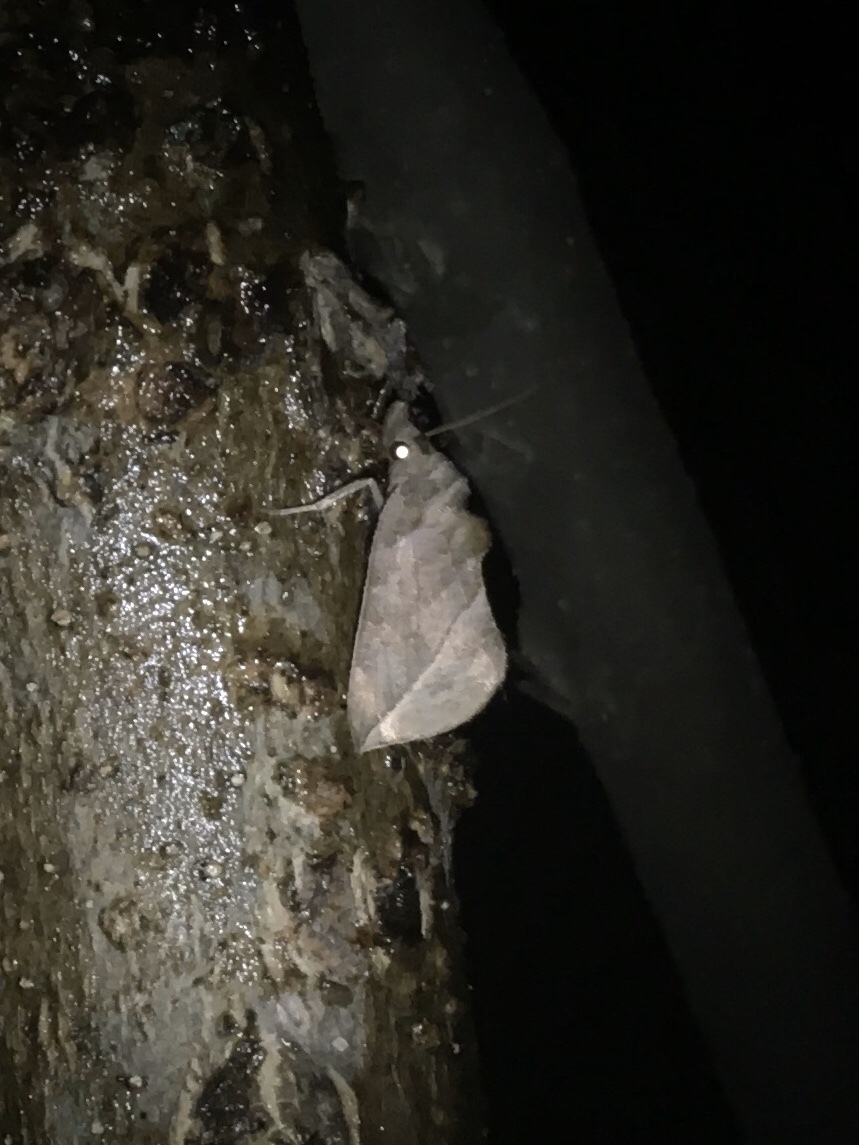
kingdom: Animalia
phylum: Arthropoda
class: Insecta
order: Lepidoptera
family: Erebidae
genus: Calyptra
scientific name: Calyptra canadensis
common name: Canadian owlet
